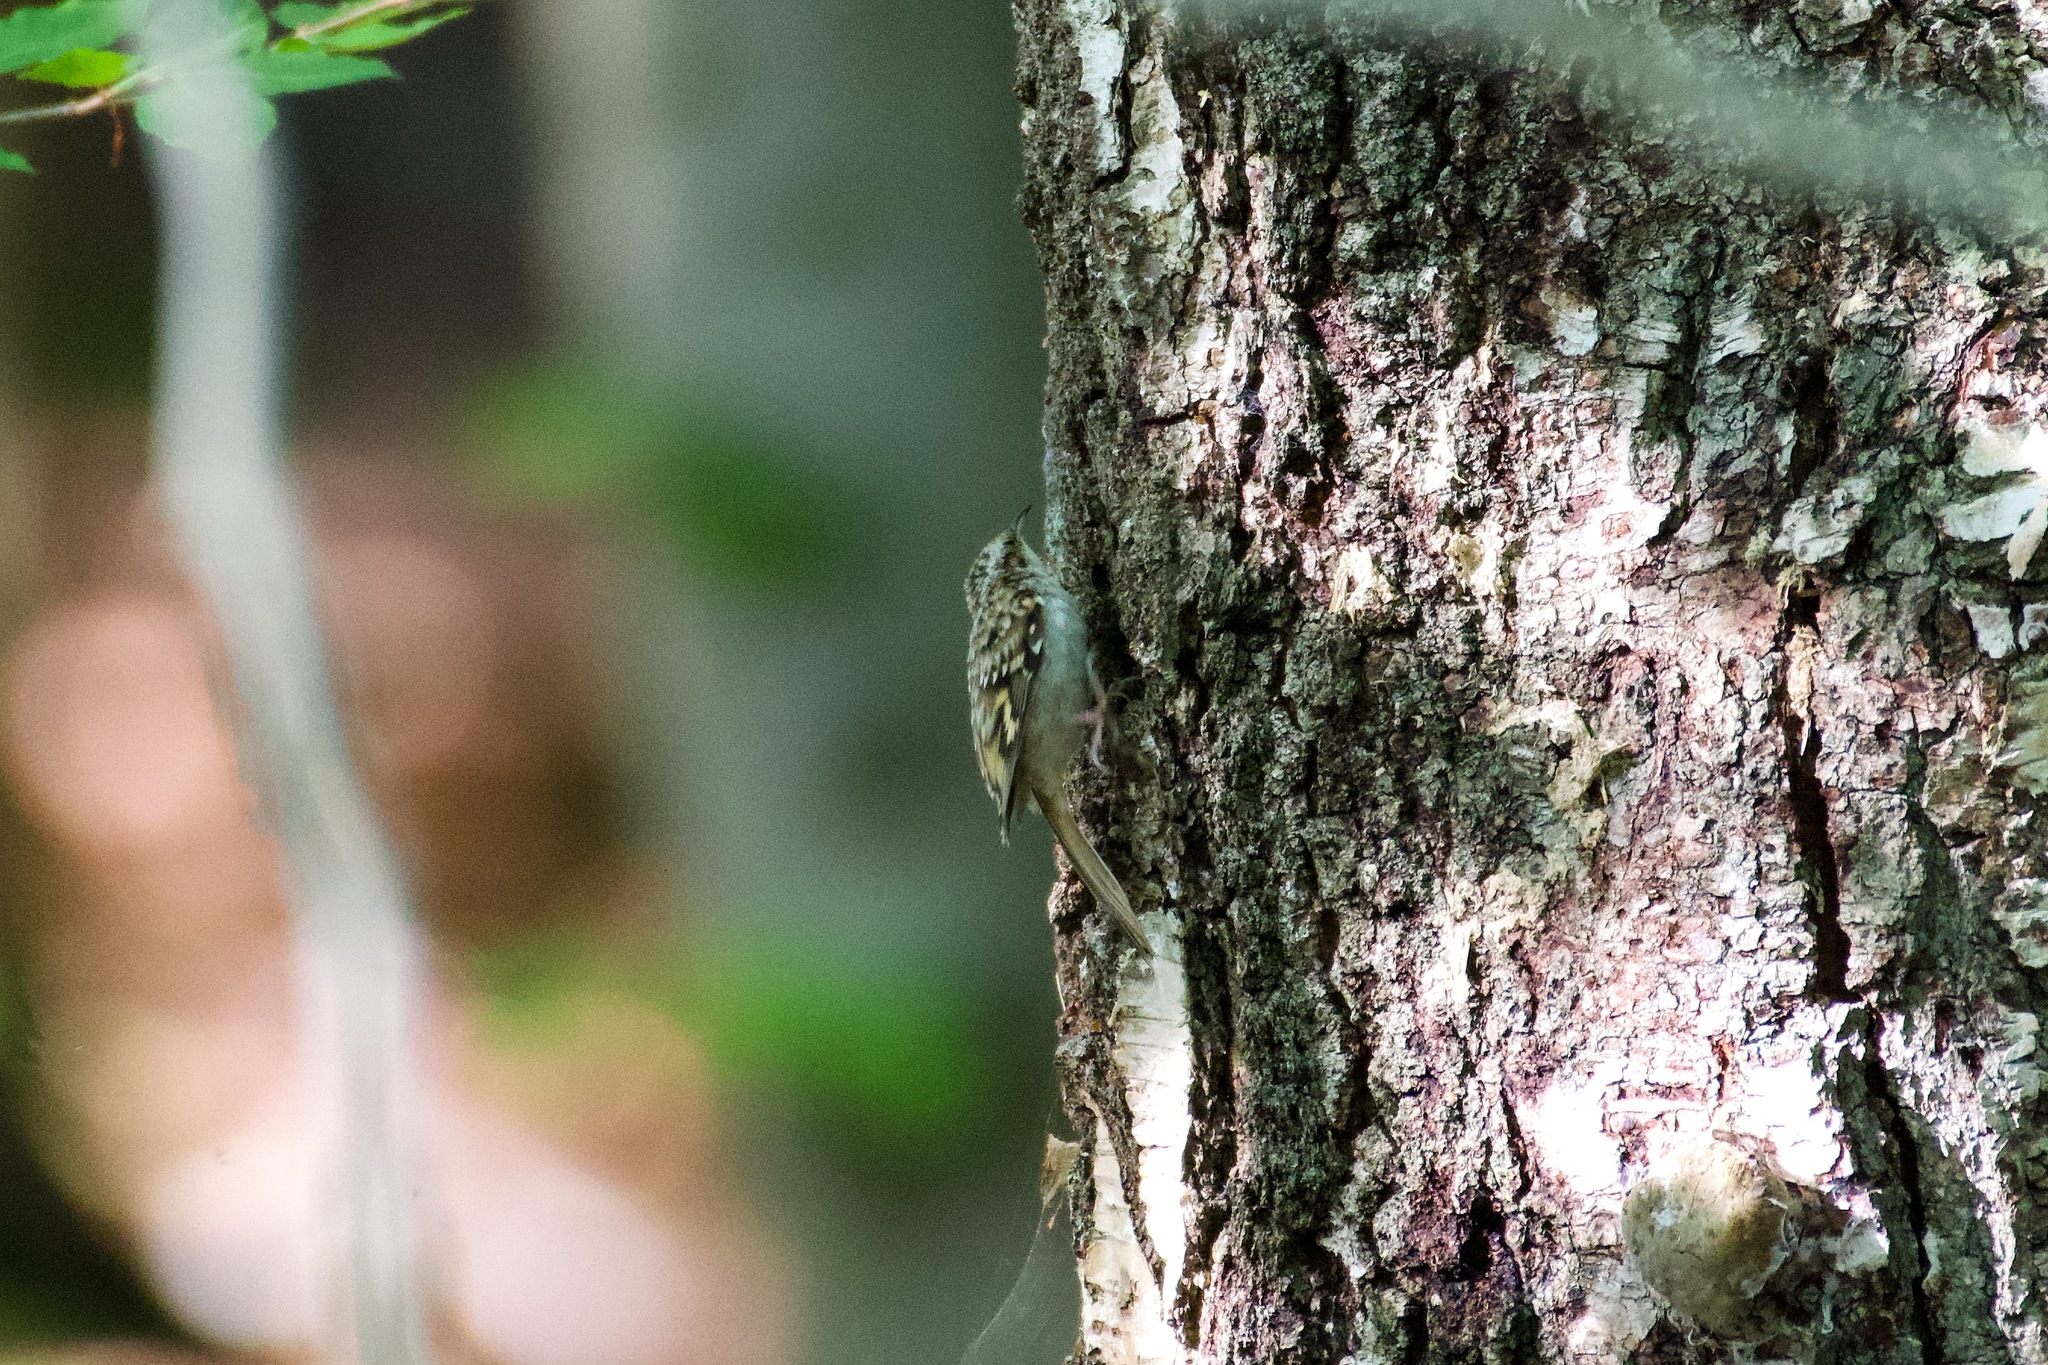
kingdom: Animalia
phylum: Chordata
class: Aves
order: Passeriformes
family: Certhiidae
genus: Certhia
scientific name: Certhia familiaris
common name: Eurasian treecreeper
